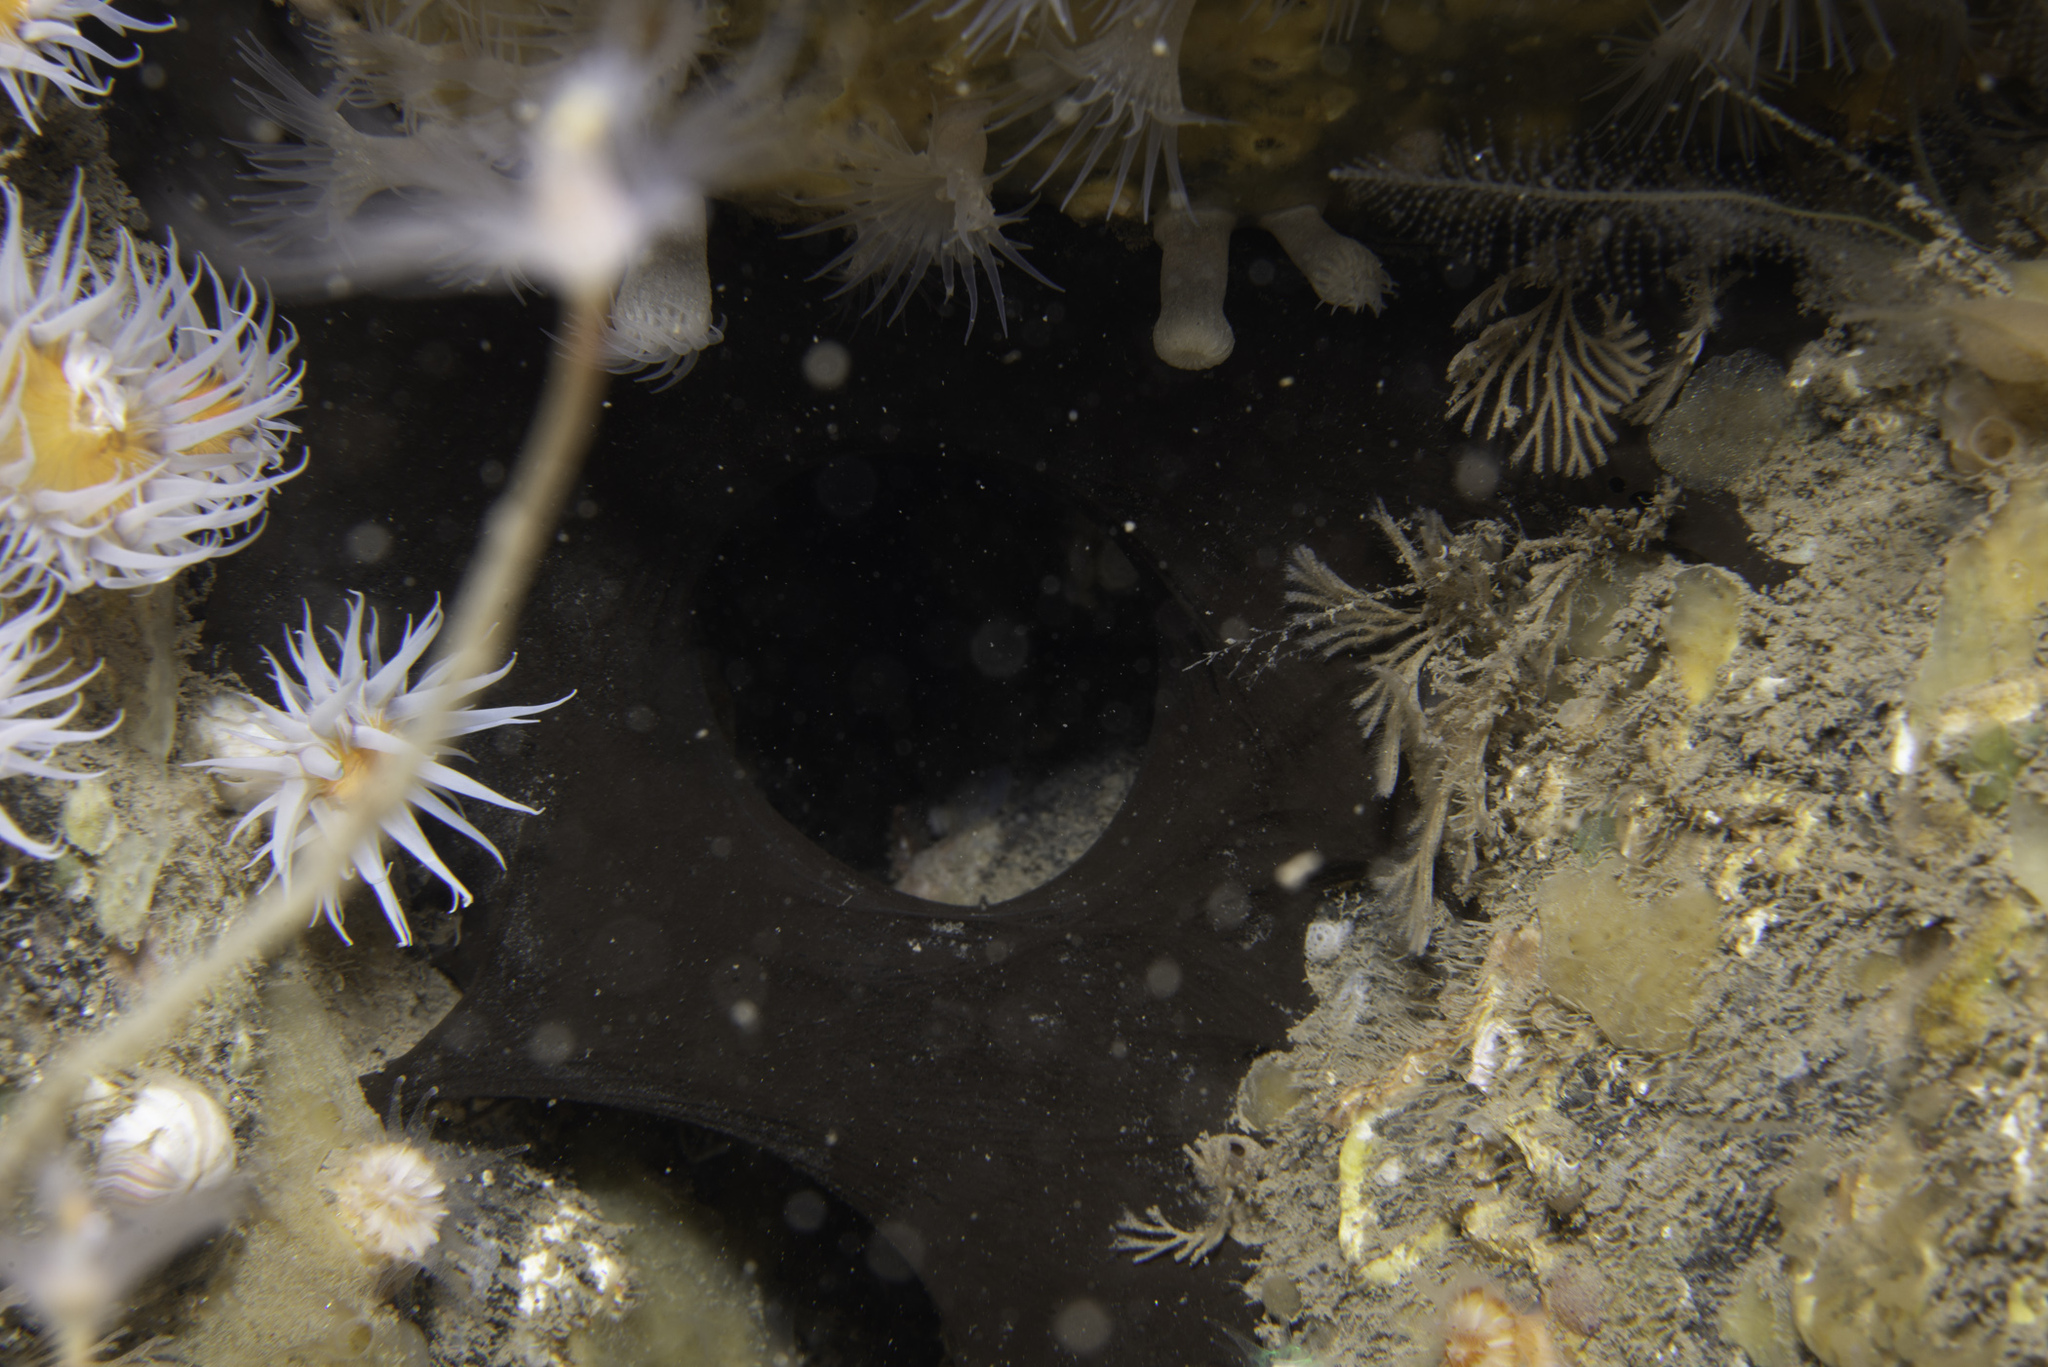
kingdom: Animalia
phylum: Porifera
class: Demospongiae
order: Tetractinellida
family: Ancorinidae
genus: Dercitus
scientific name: Dercitus bucklandi
